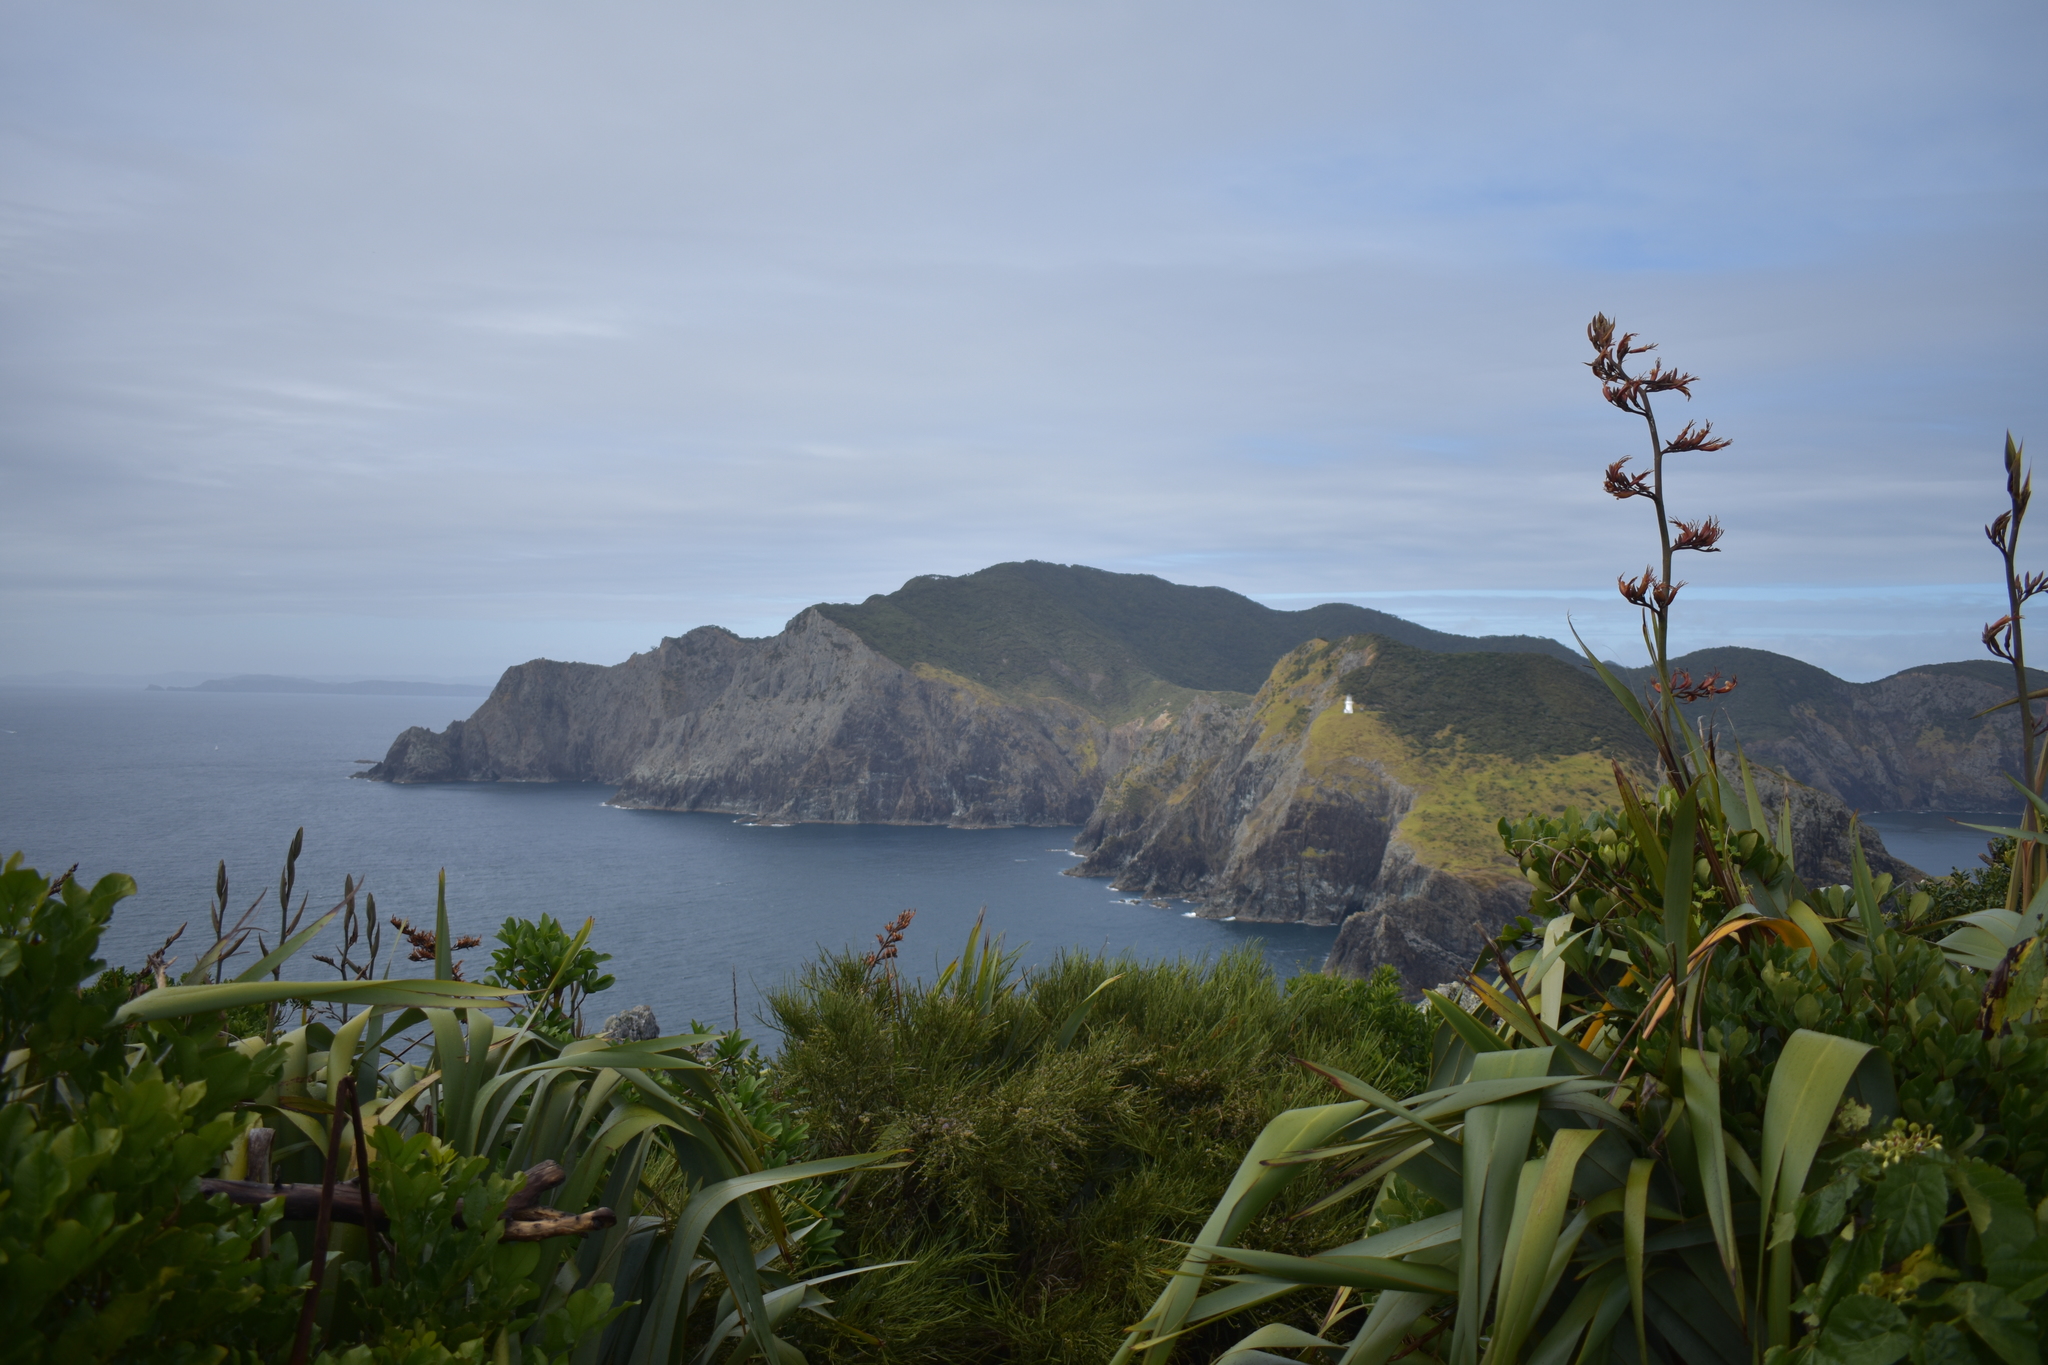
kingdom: Plantae
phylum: Tracheophyta
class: Liliopsida
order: Asparagales
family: Asphodelaceae
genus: Phormium
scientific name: Phormium tenax
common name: New zealand flax
